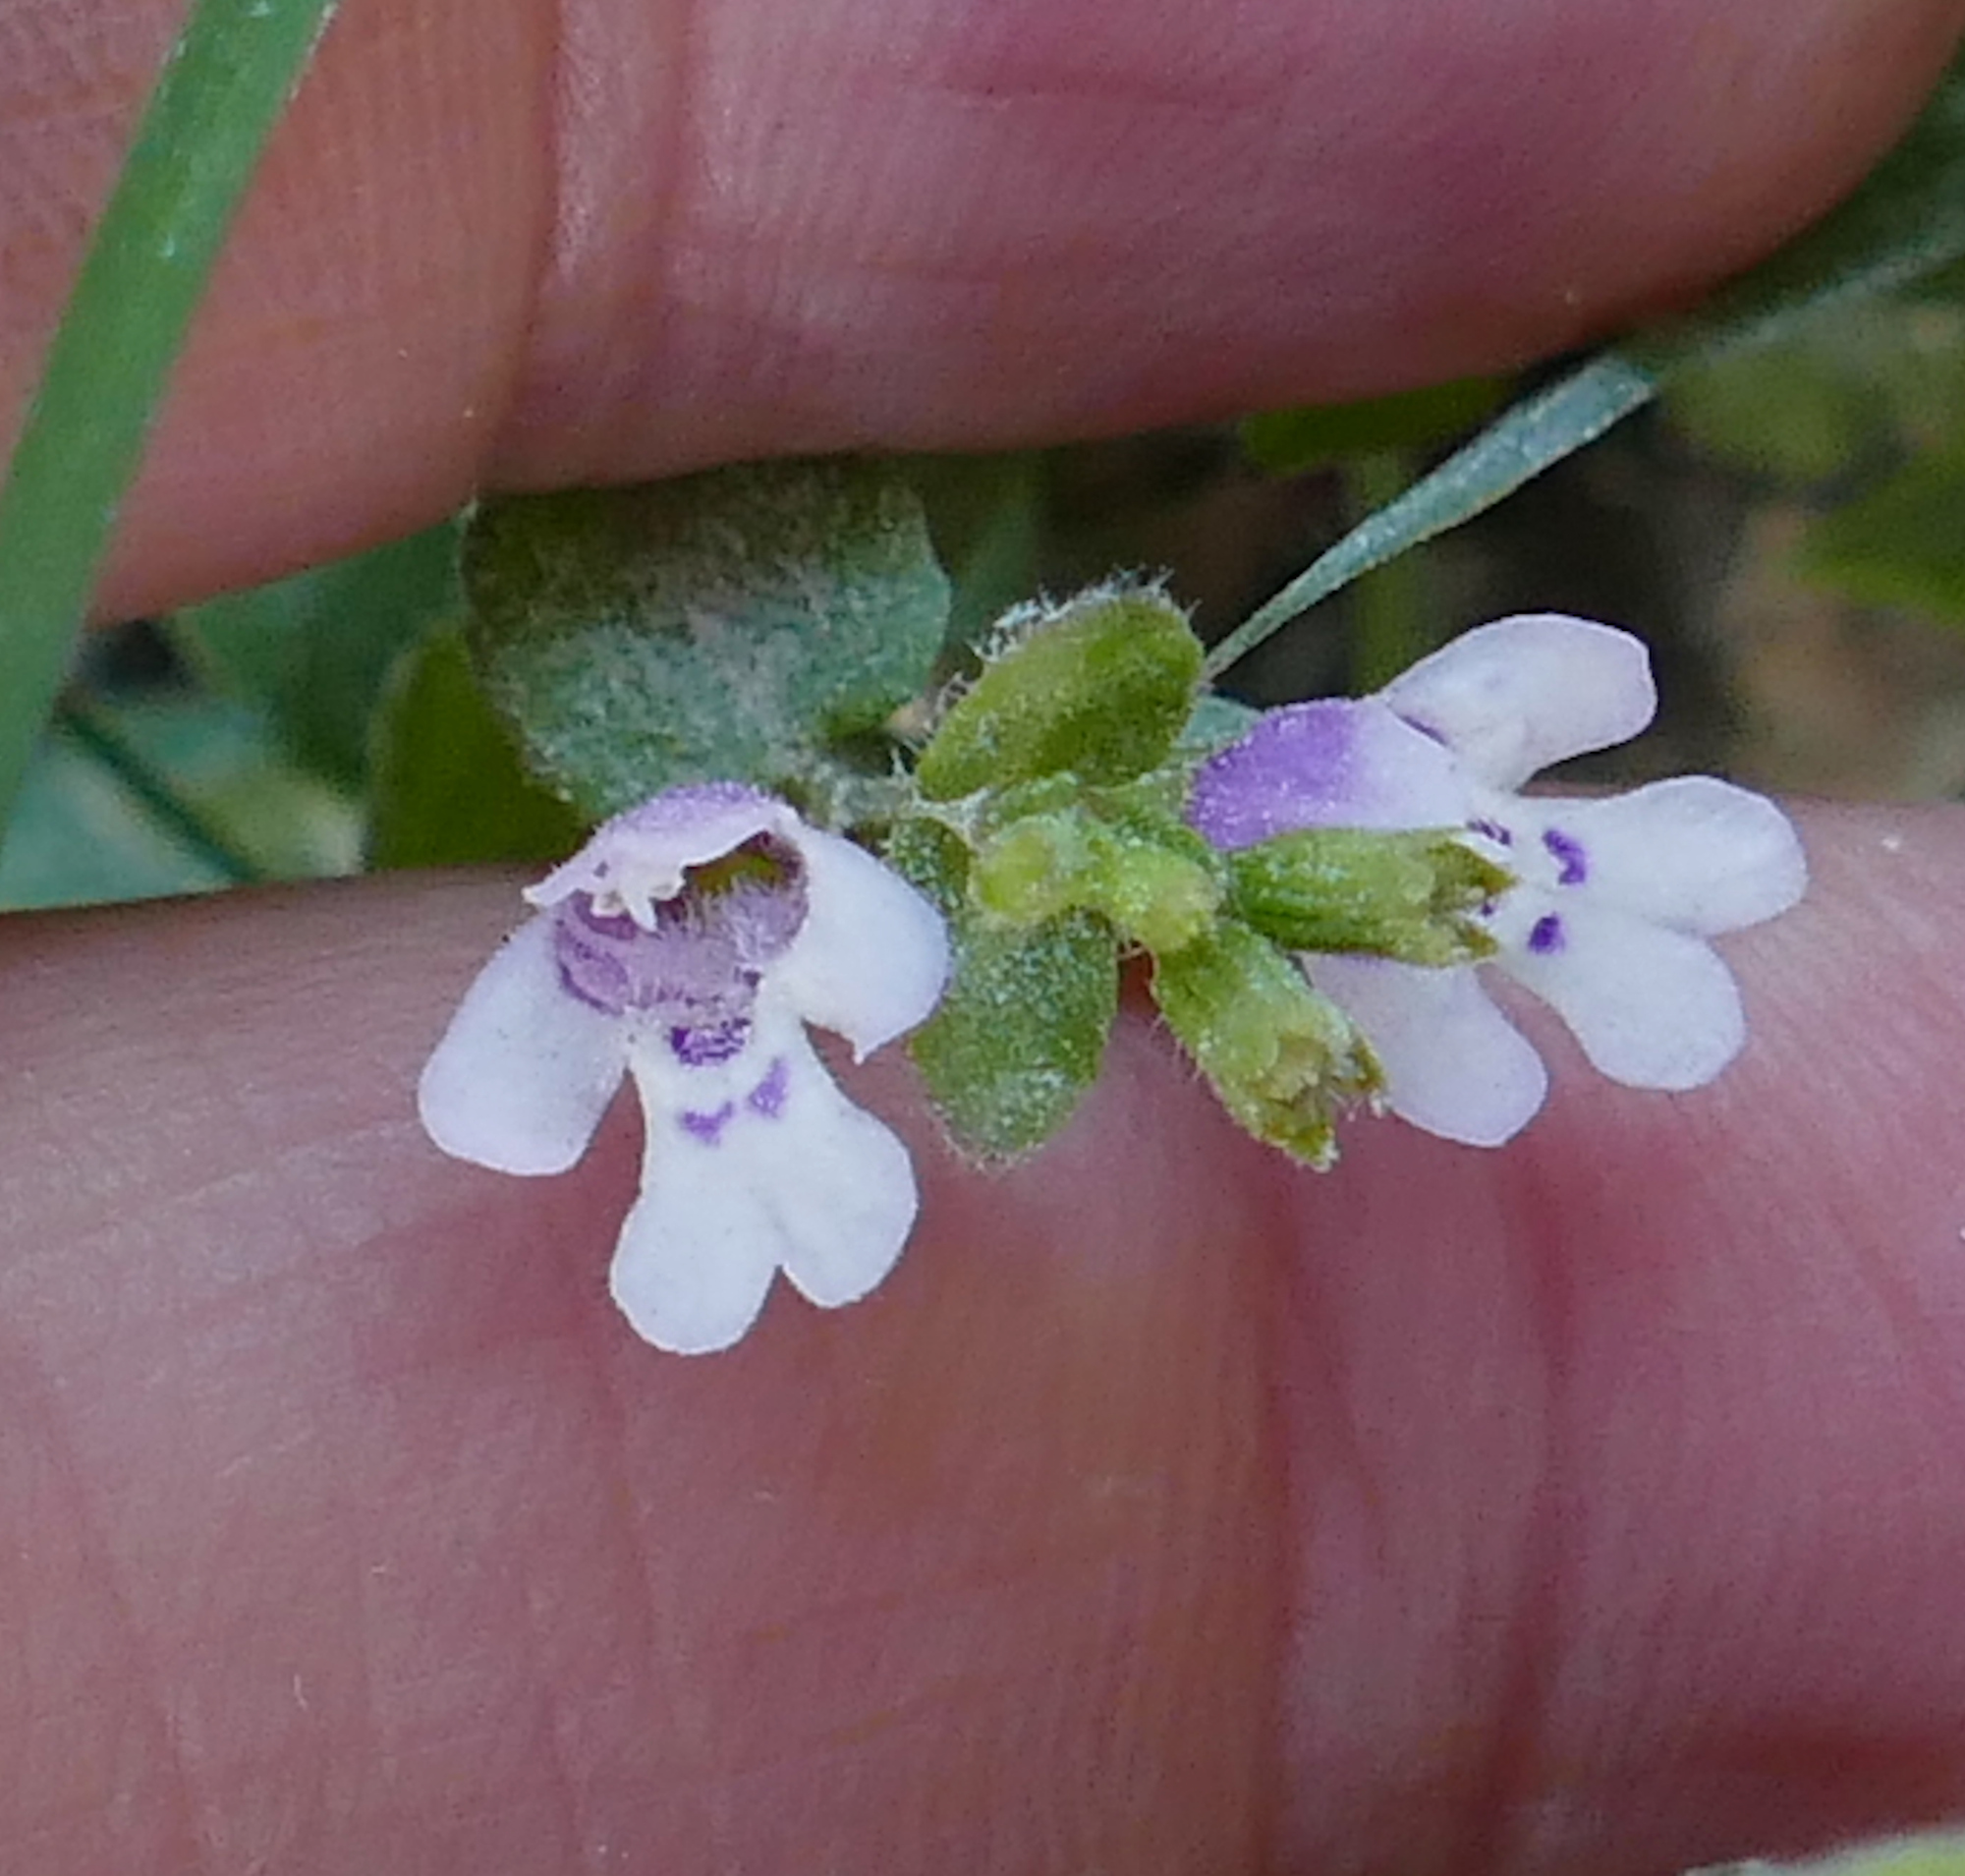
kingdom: Plantae
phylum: Tracheophyta
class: Magnoliopsida
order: Lamiales
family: Lamiaceae
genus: Clinopodium
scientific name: Clinopodium brownei
